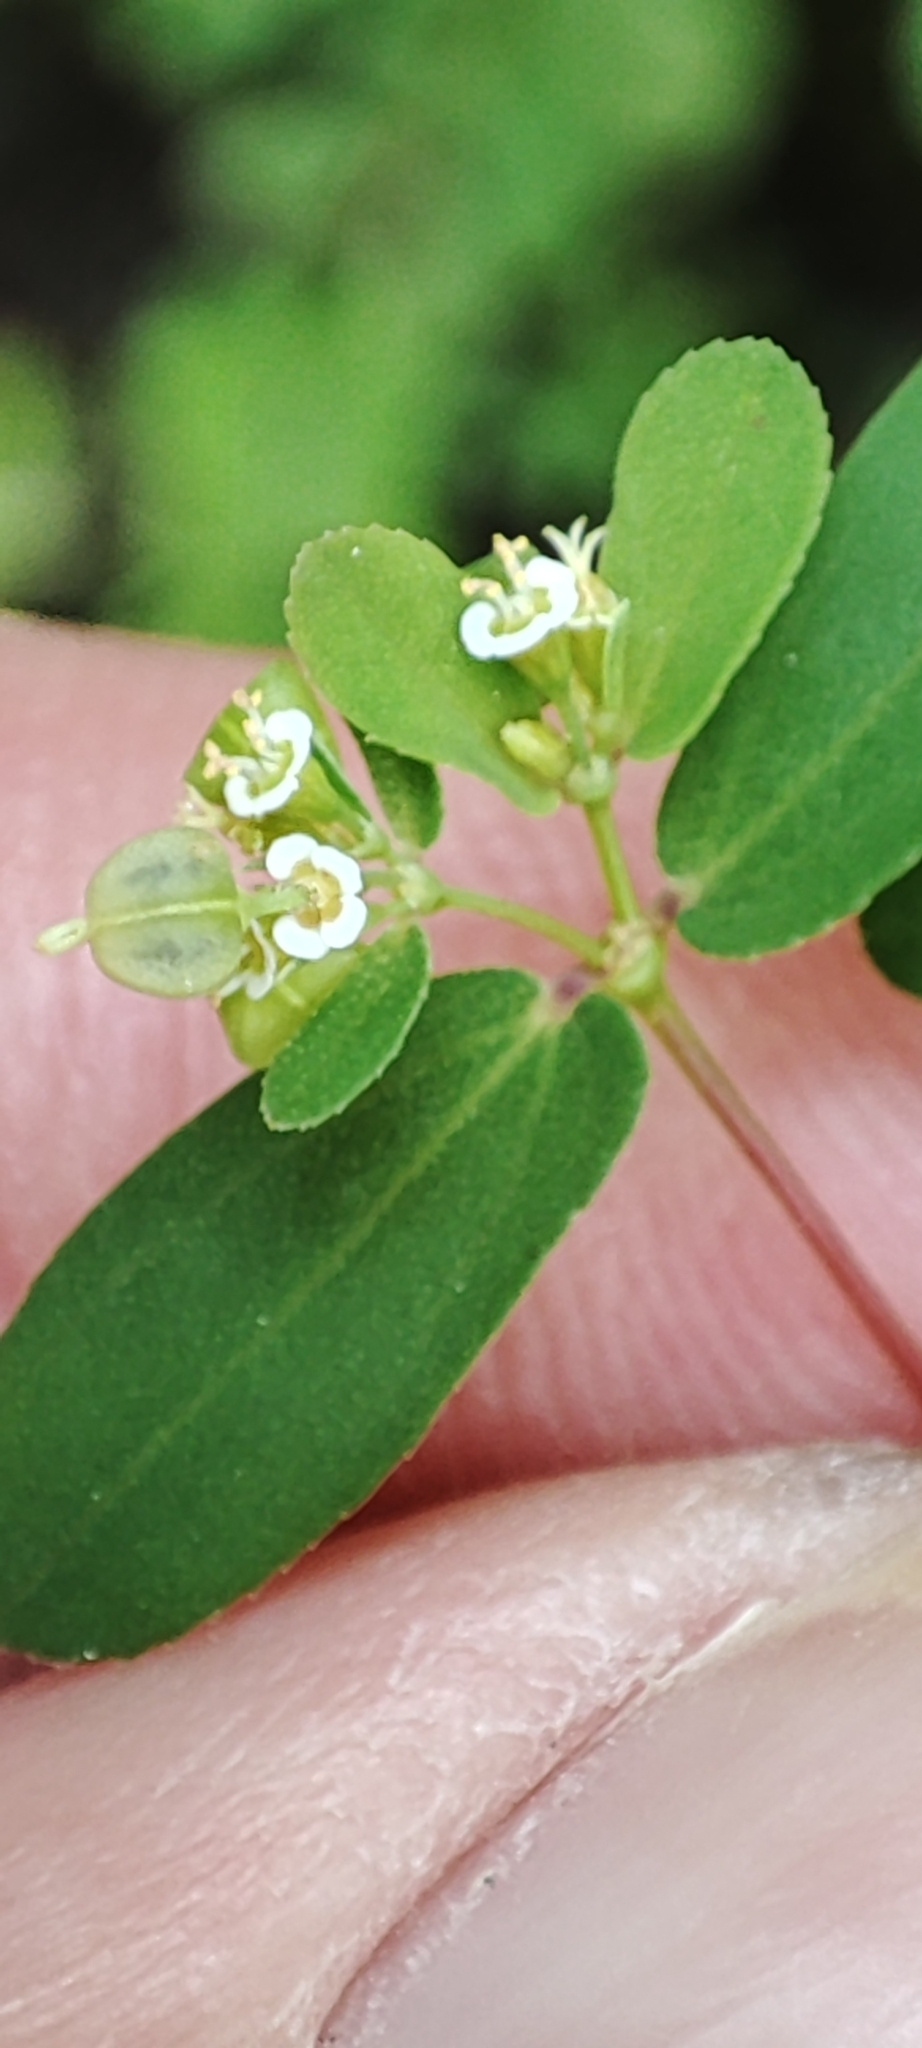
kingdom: Plantae
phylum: Tracheophyta
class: Magnoliopsida
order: Malpighiales
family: Euphorbiaceae
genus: Euphorbia
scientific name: Euphorbia hyssopifolia
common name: Hyssopleaf sandmat
